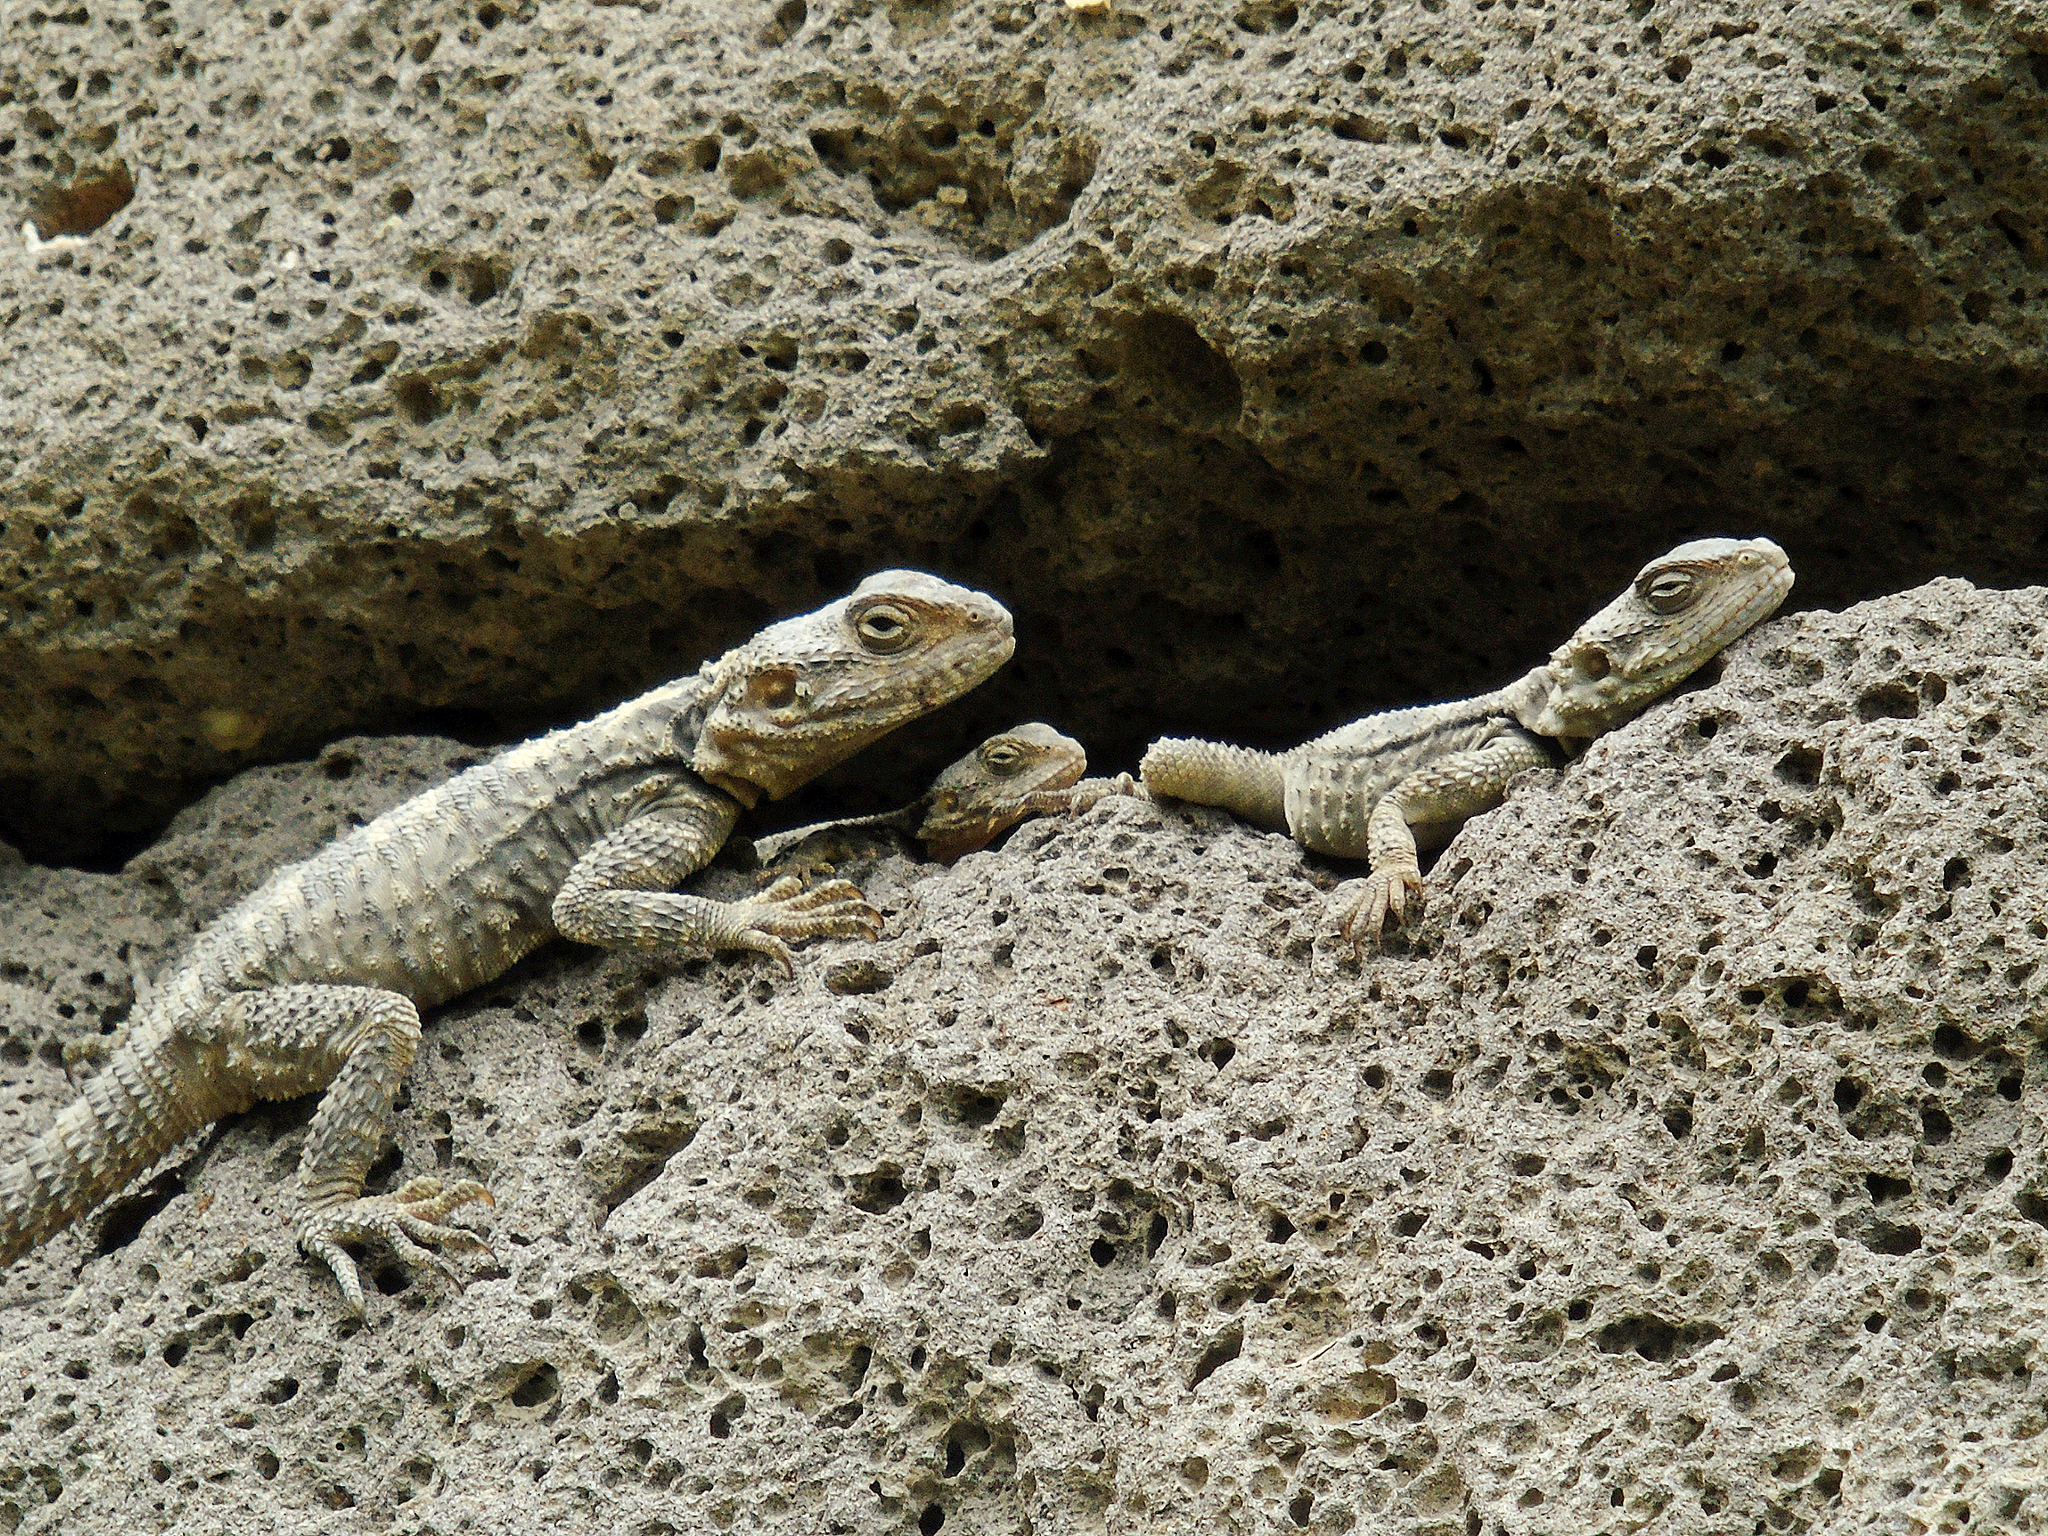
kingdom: Animalia
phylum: Chordata
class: Squamata
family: Agamidae
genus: Stellagama
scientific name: Stellagama stellio
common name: Starred agama
